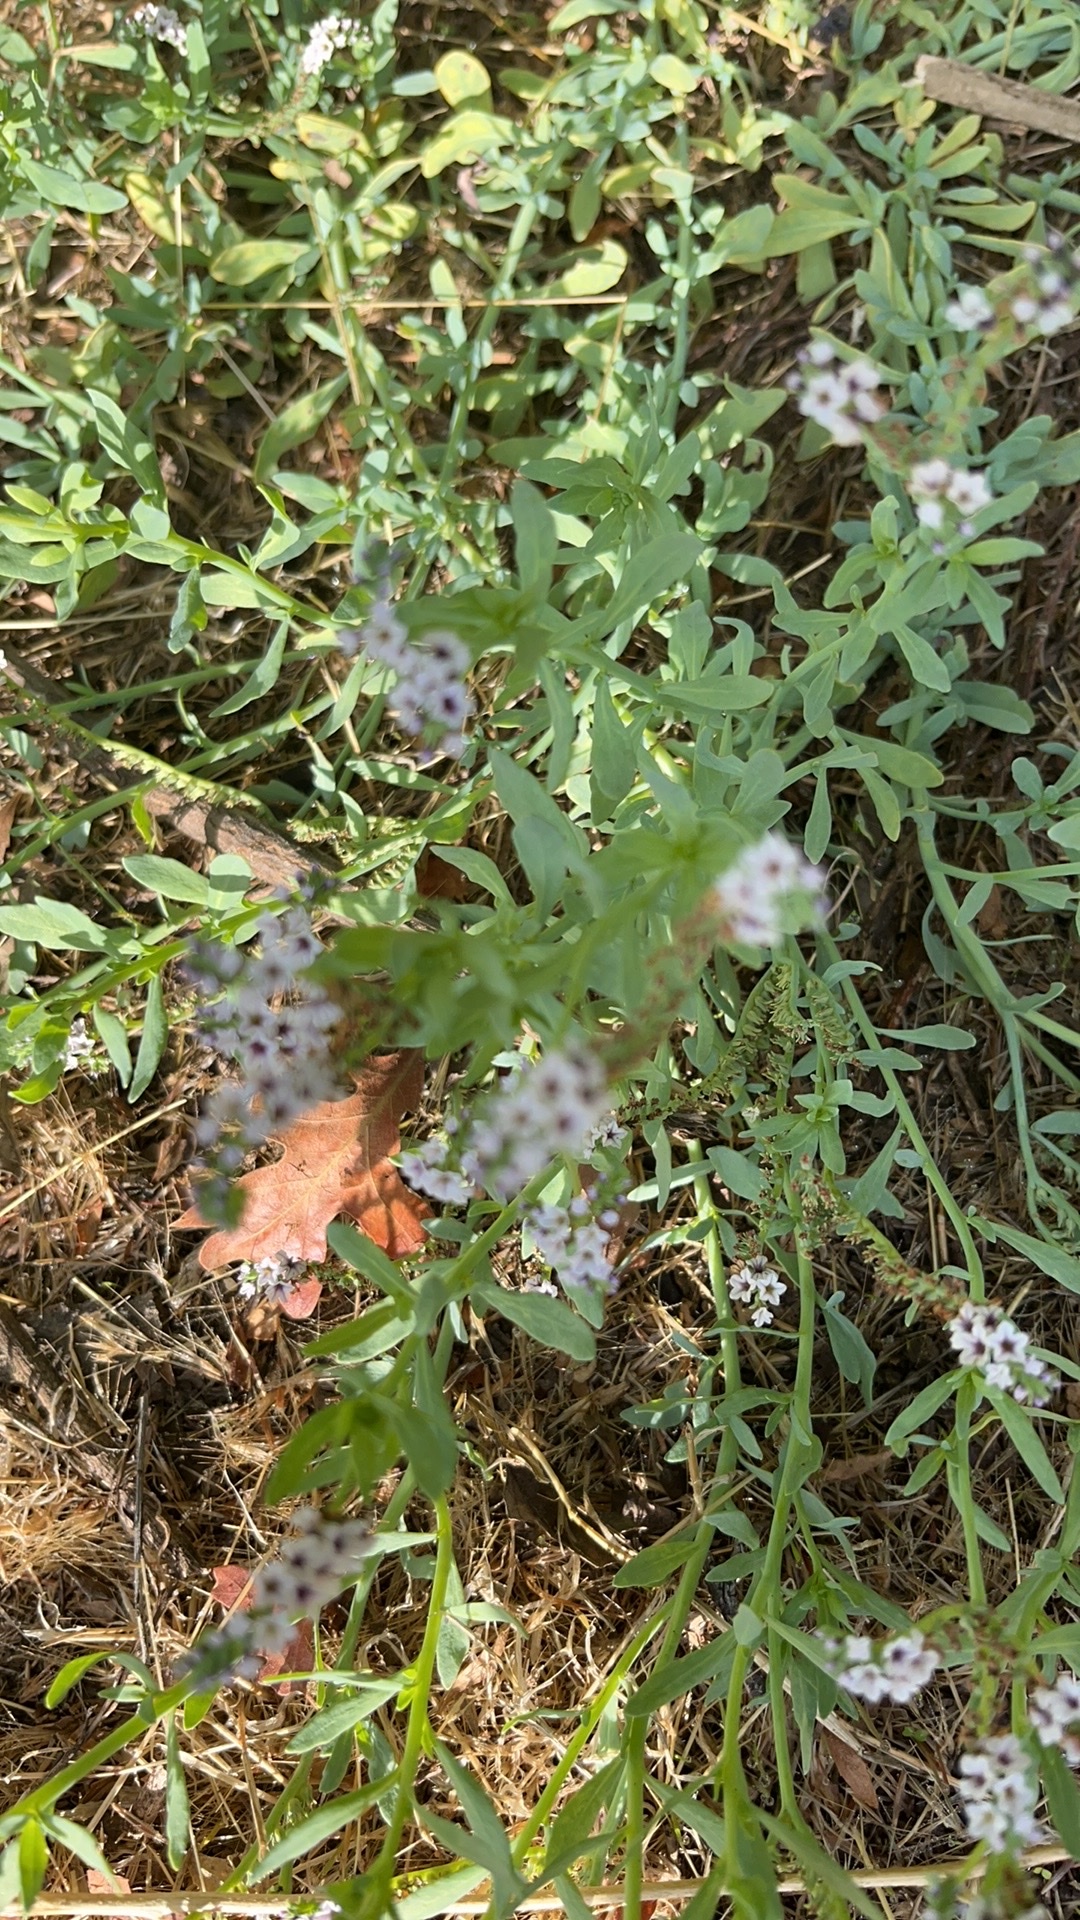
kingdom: Plantae
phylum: Tracheophyta
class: Magnoliopsida
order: Boraginales
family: Heliotropiaceae
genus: Heliotropium
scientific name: Heliotropium curassavicum
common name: Seaside heliotrope
